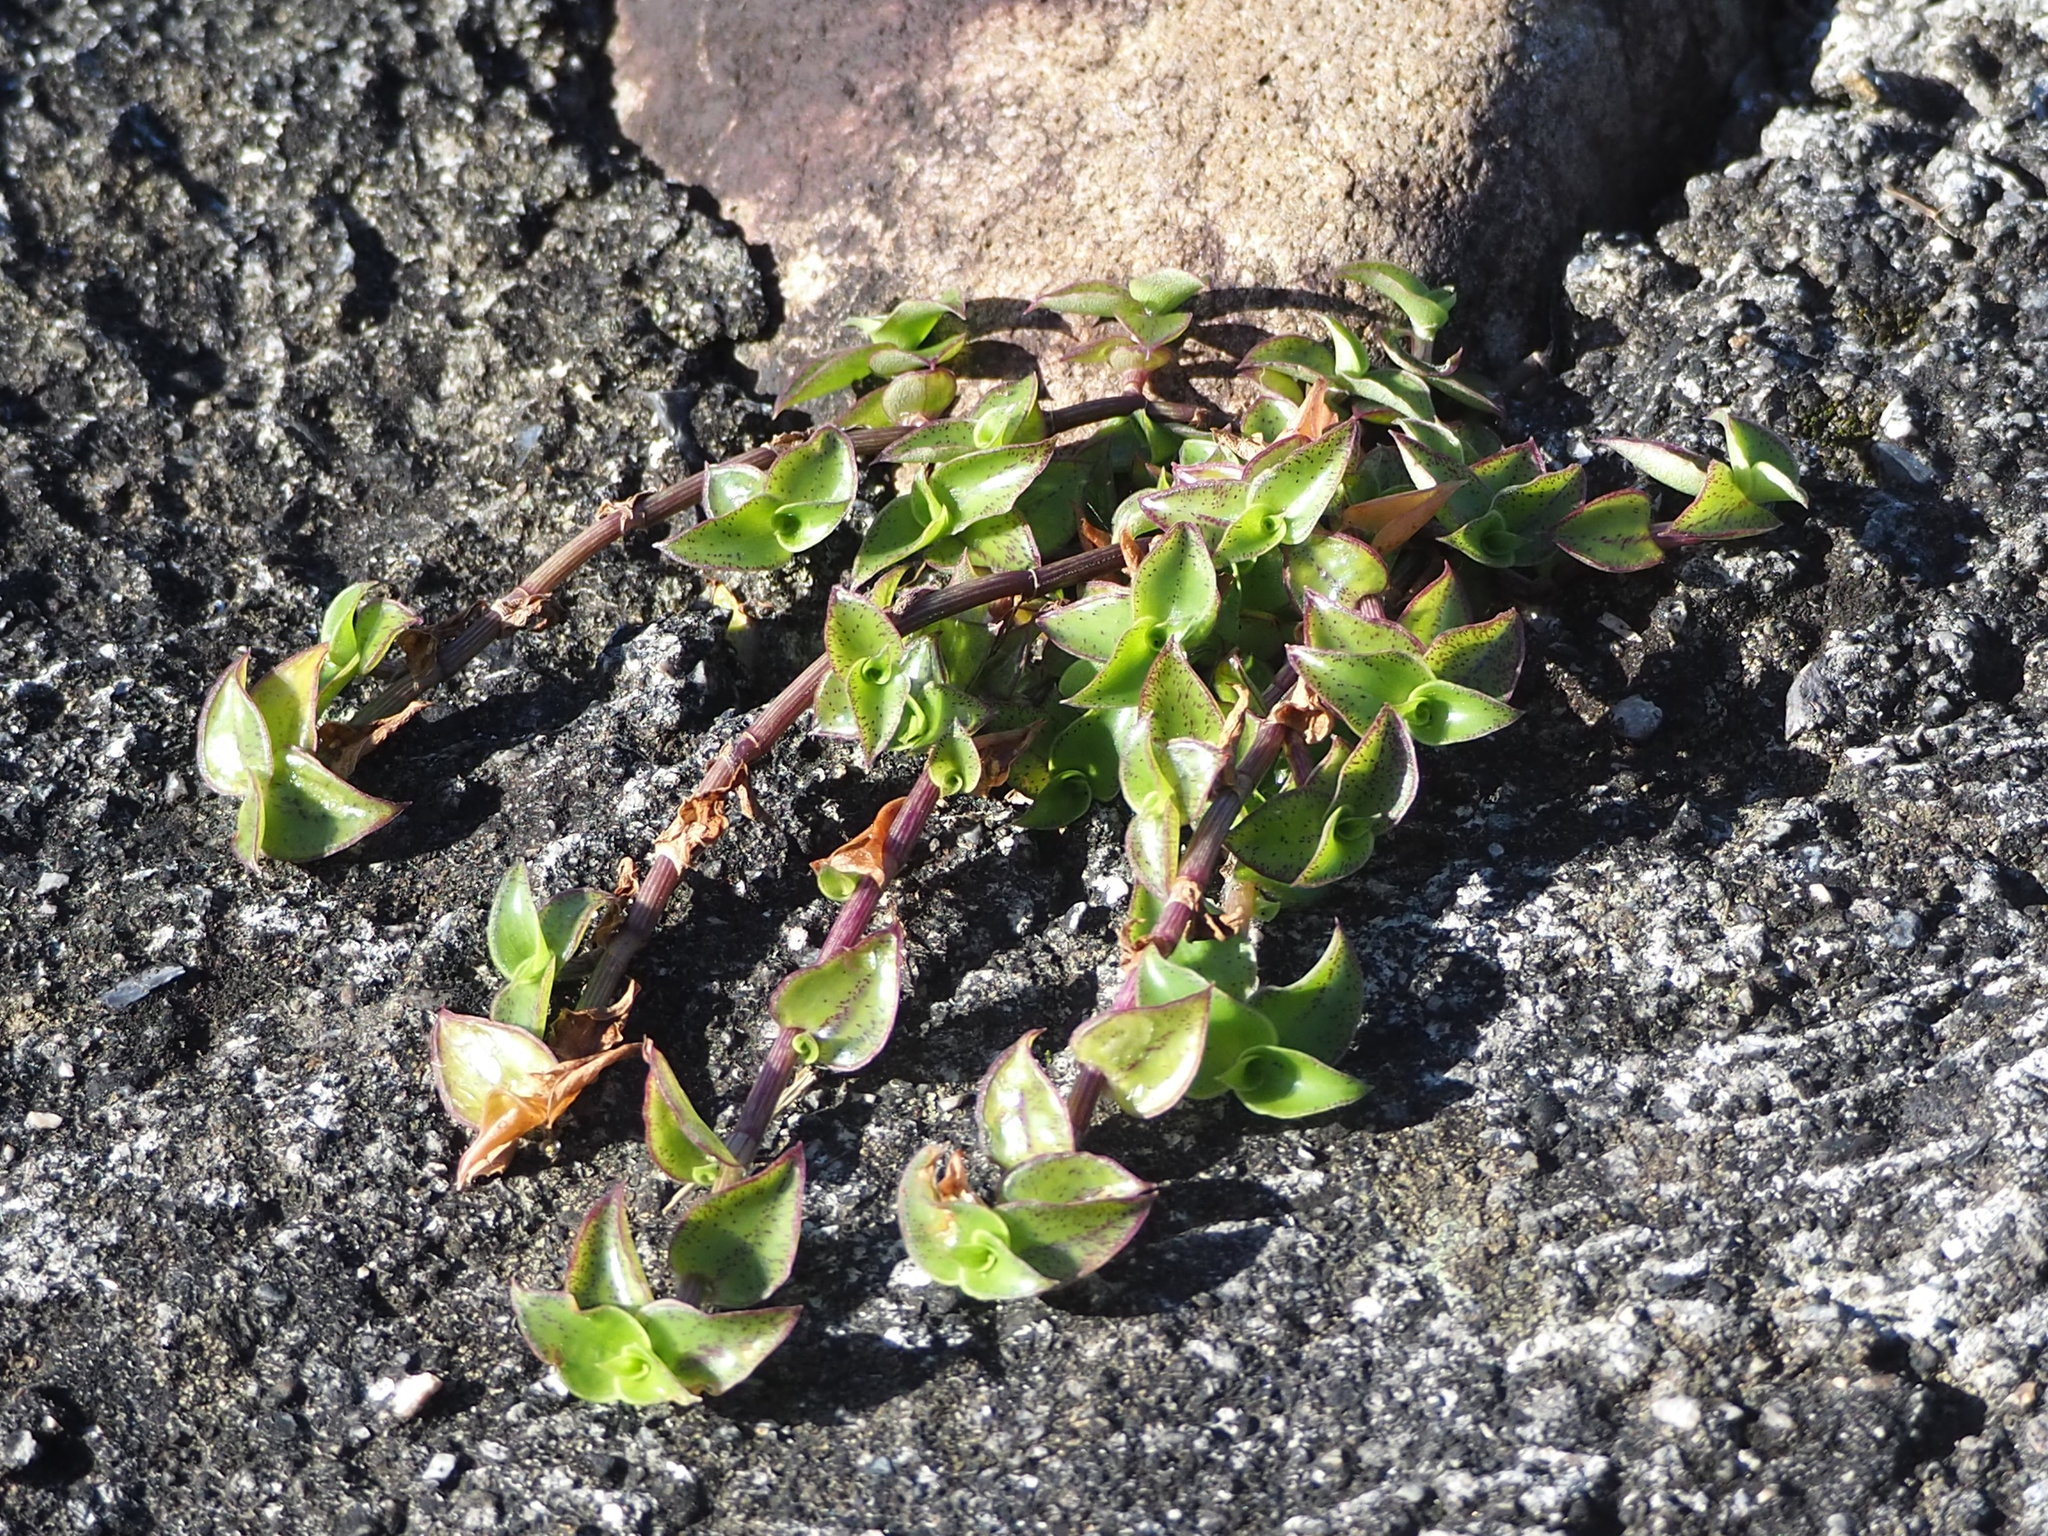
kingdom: Plantae
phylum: Tracheophyta
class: Liliopsida
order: Commelinales
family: Commelinaceae
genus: Callisia
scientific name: Callisia repens
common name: Creeping inchplant
